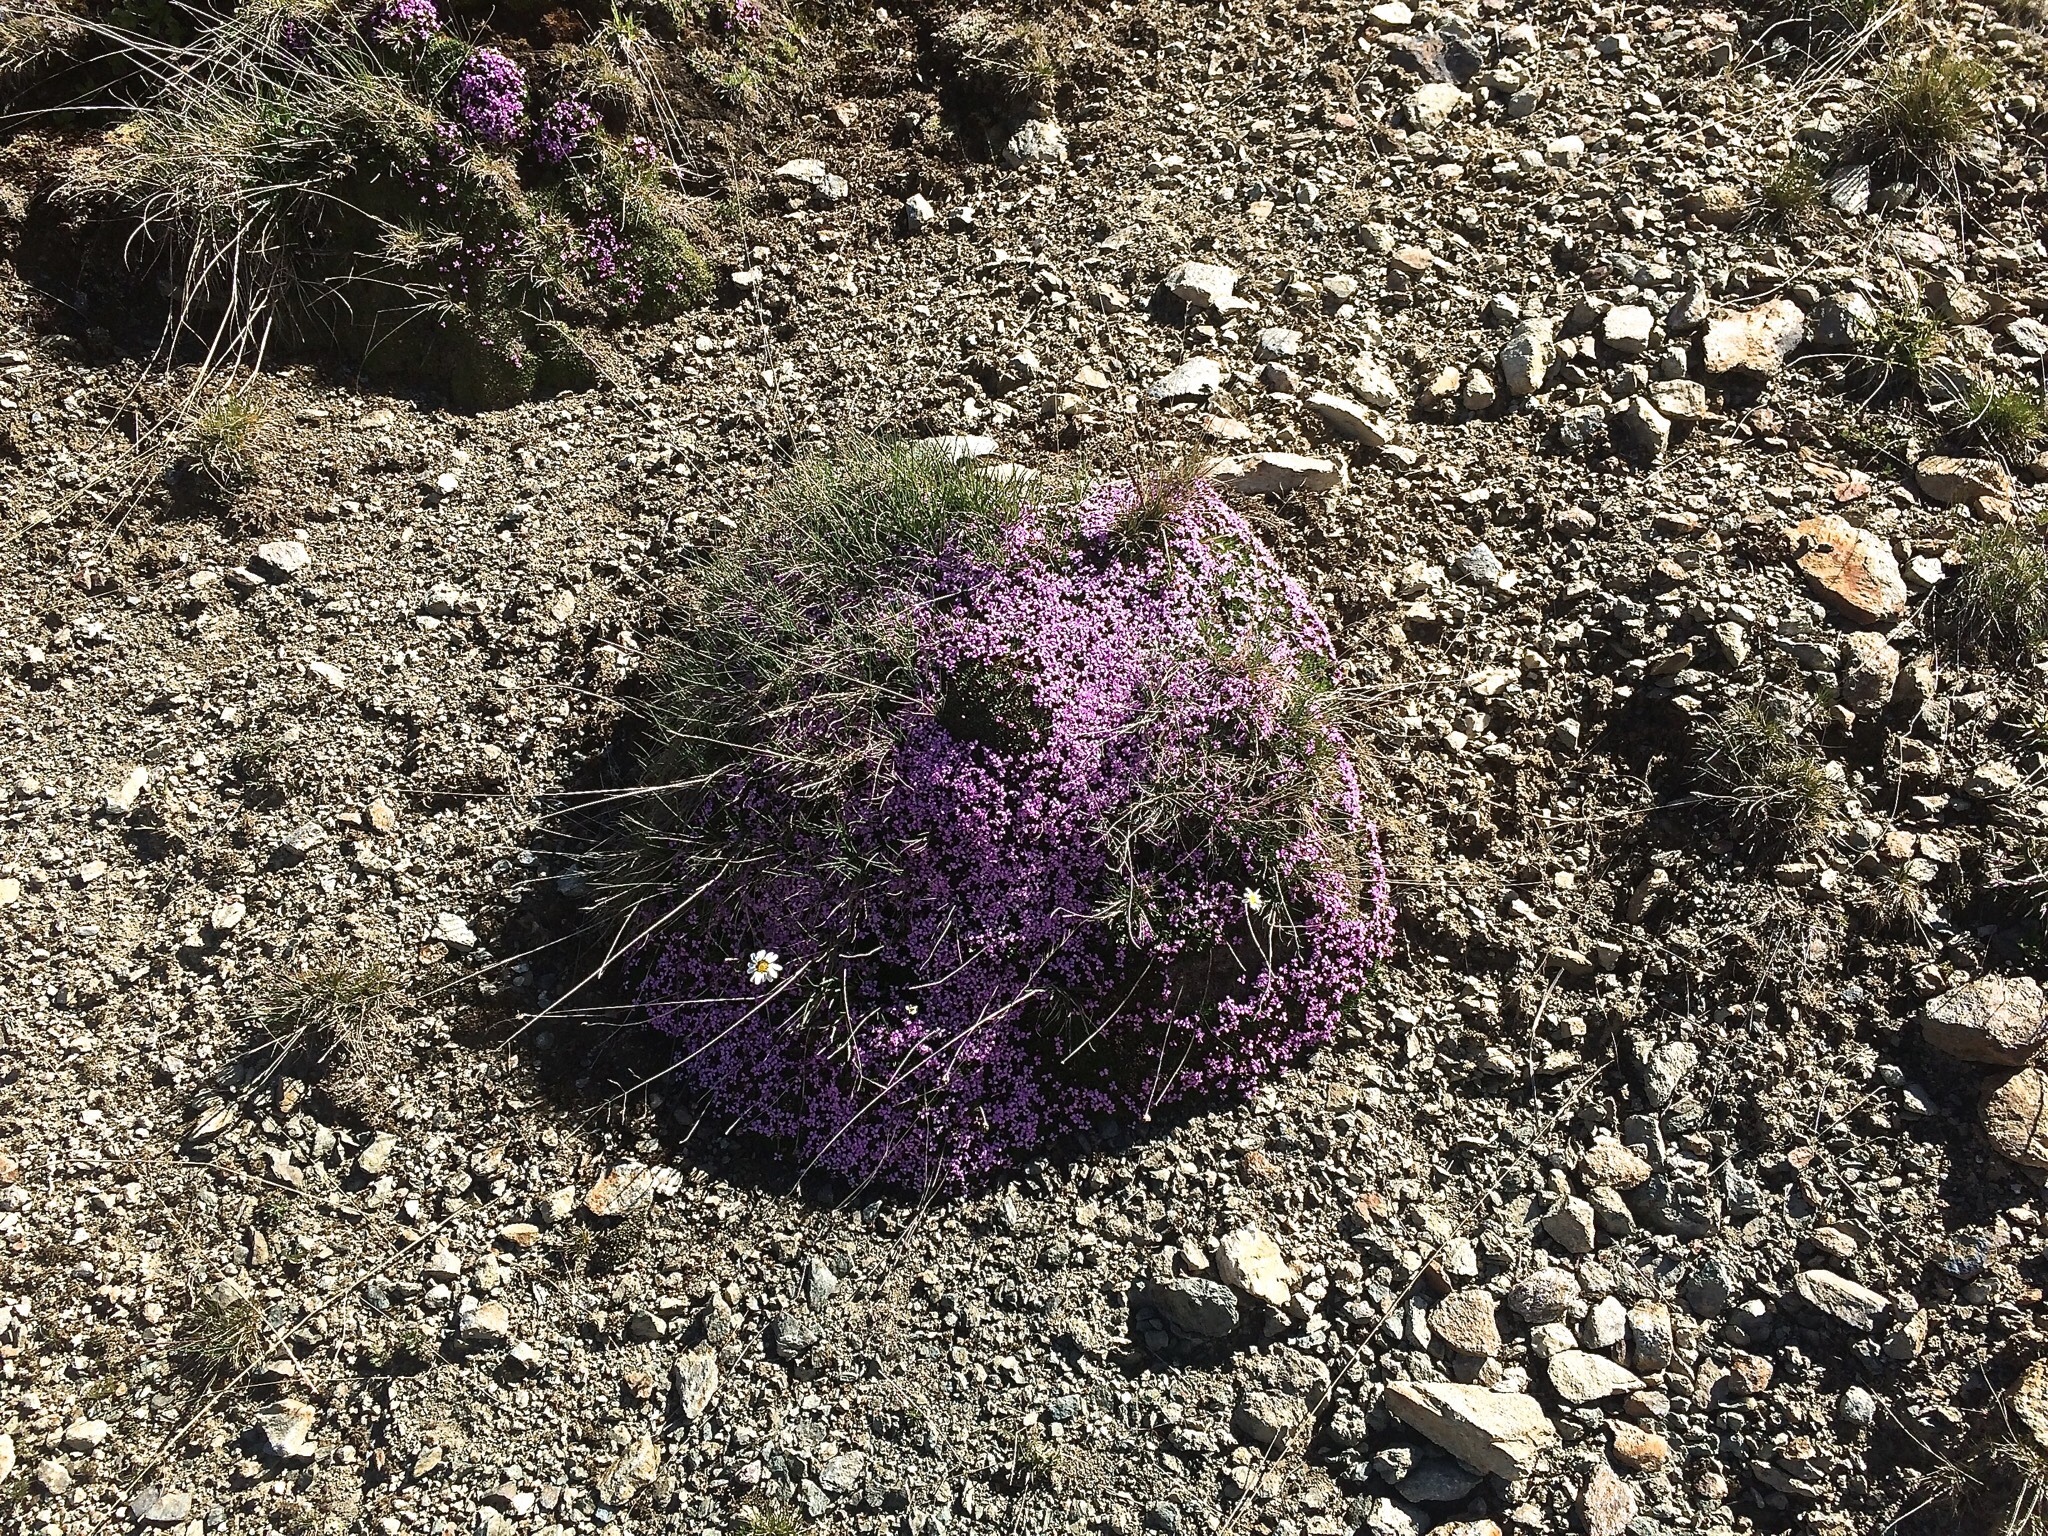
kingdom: Plantae
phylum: Tracheophyta
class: Magnoliopsida
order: Caryophyllales
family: Caryophyllaceae
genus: Silene
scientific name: Silene acaulis
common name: Moss campion
